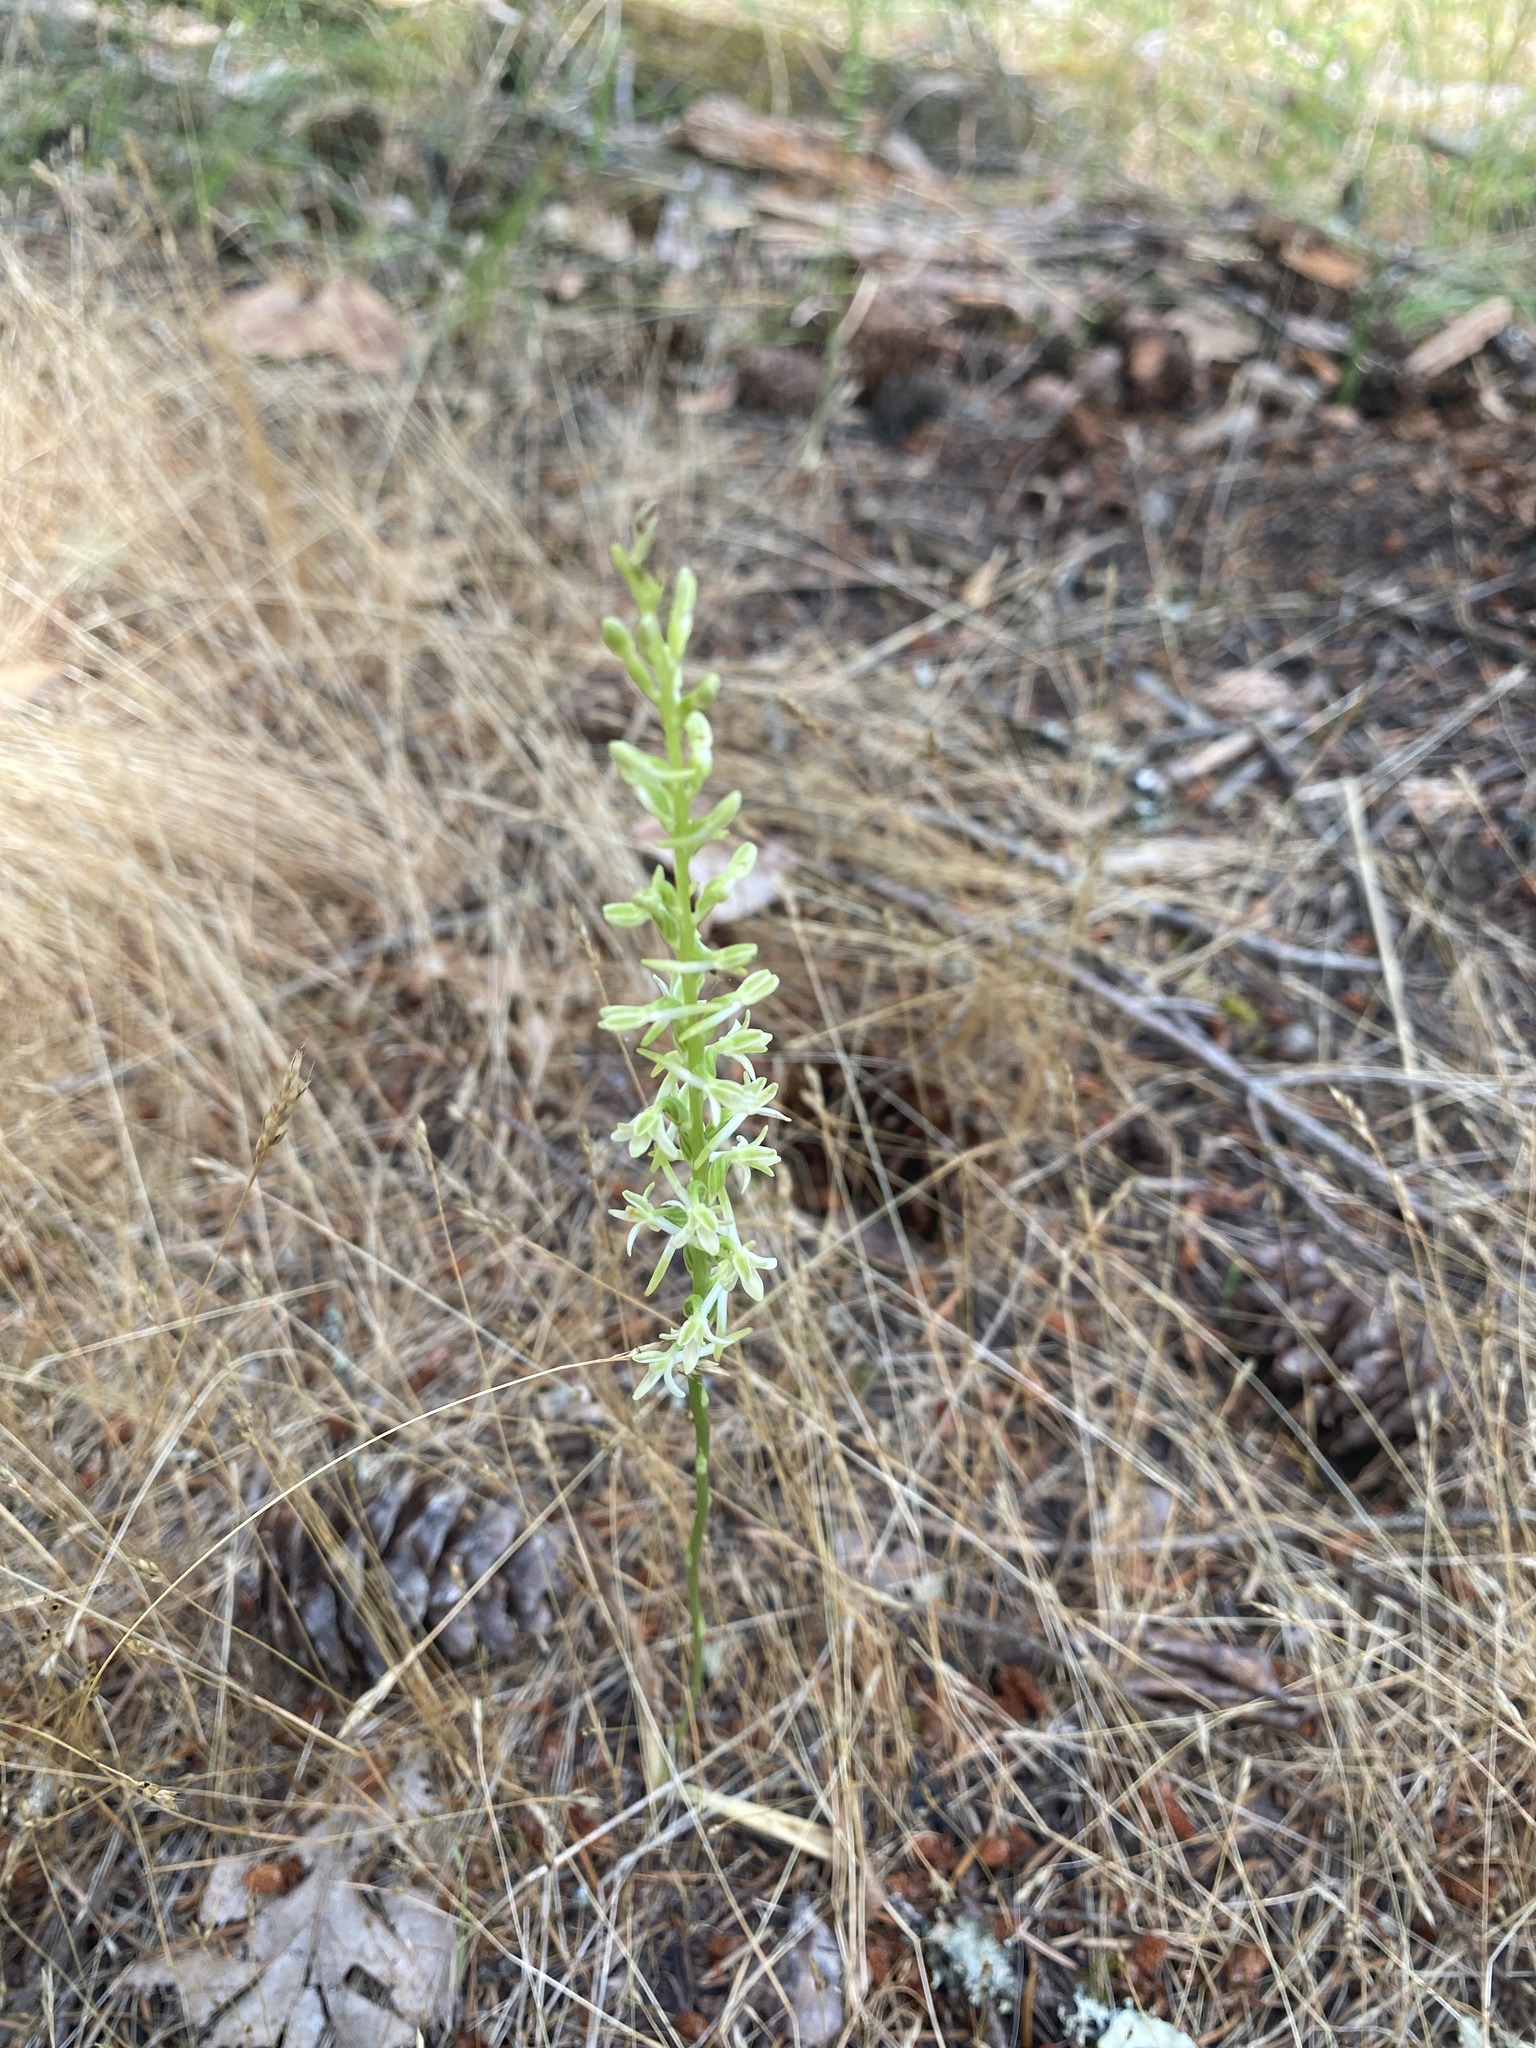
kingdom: Plantae
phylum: Tracheophyta
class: Liliopsida
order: Asparagales
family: Orchidaceae
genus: Platanthera
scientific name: Platanthera transversa
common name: Royal rein orchid
